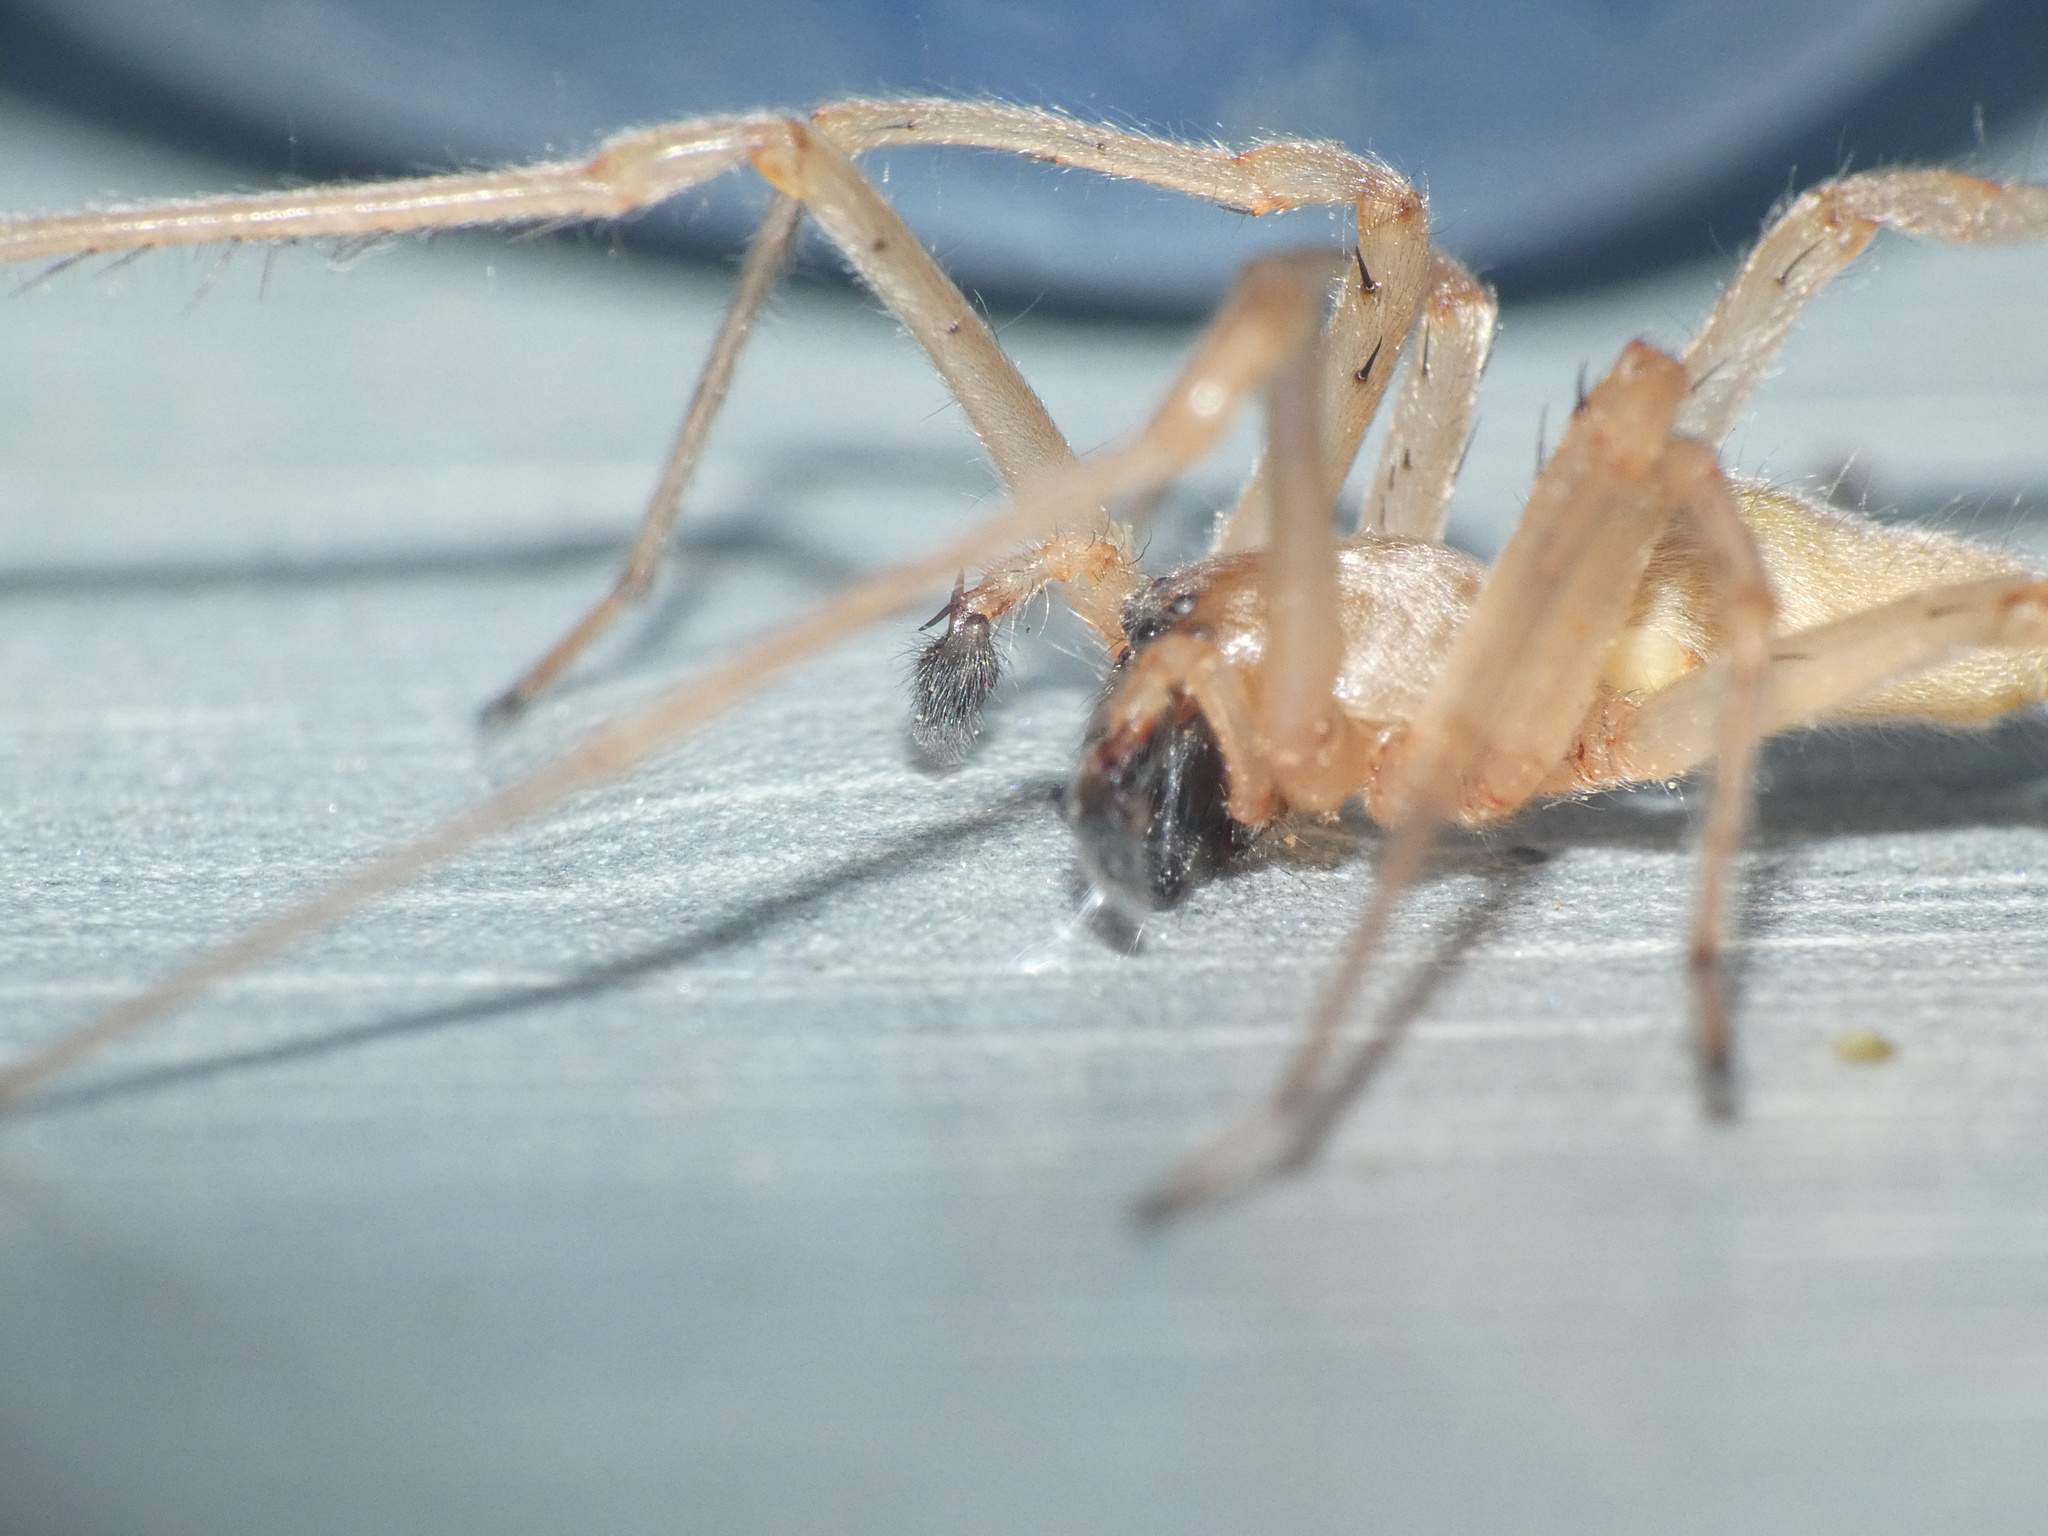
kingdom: Animalia
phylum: Arthropoda
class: Arachnida
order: Araneae
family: Cheiracanthiidae
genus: Cheiracanthium
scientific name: Cheiracanthium furculatum
